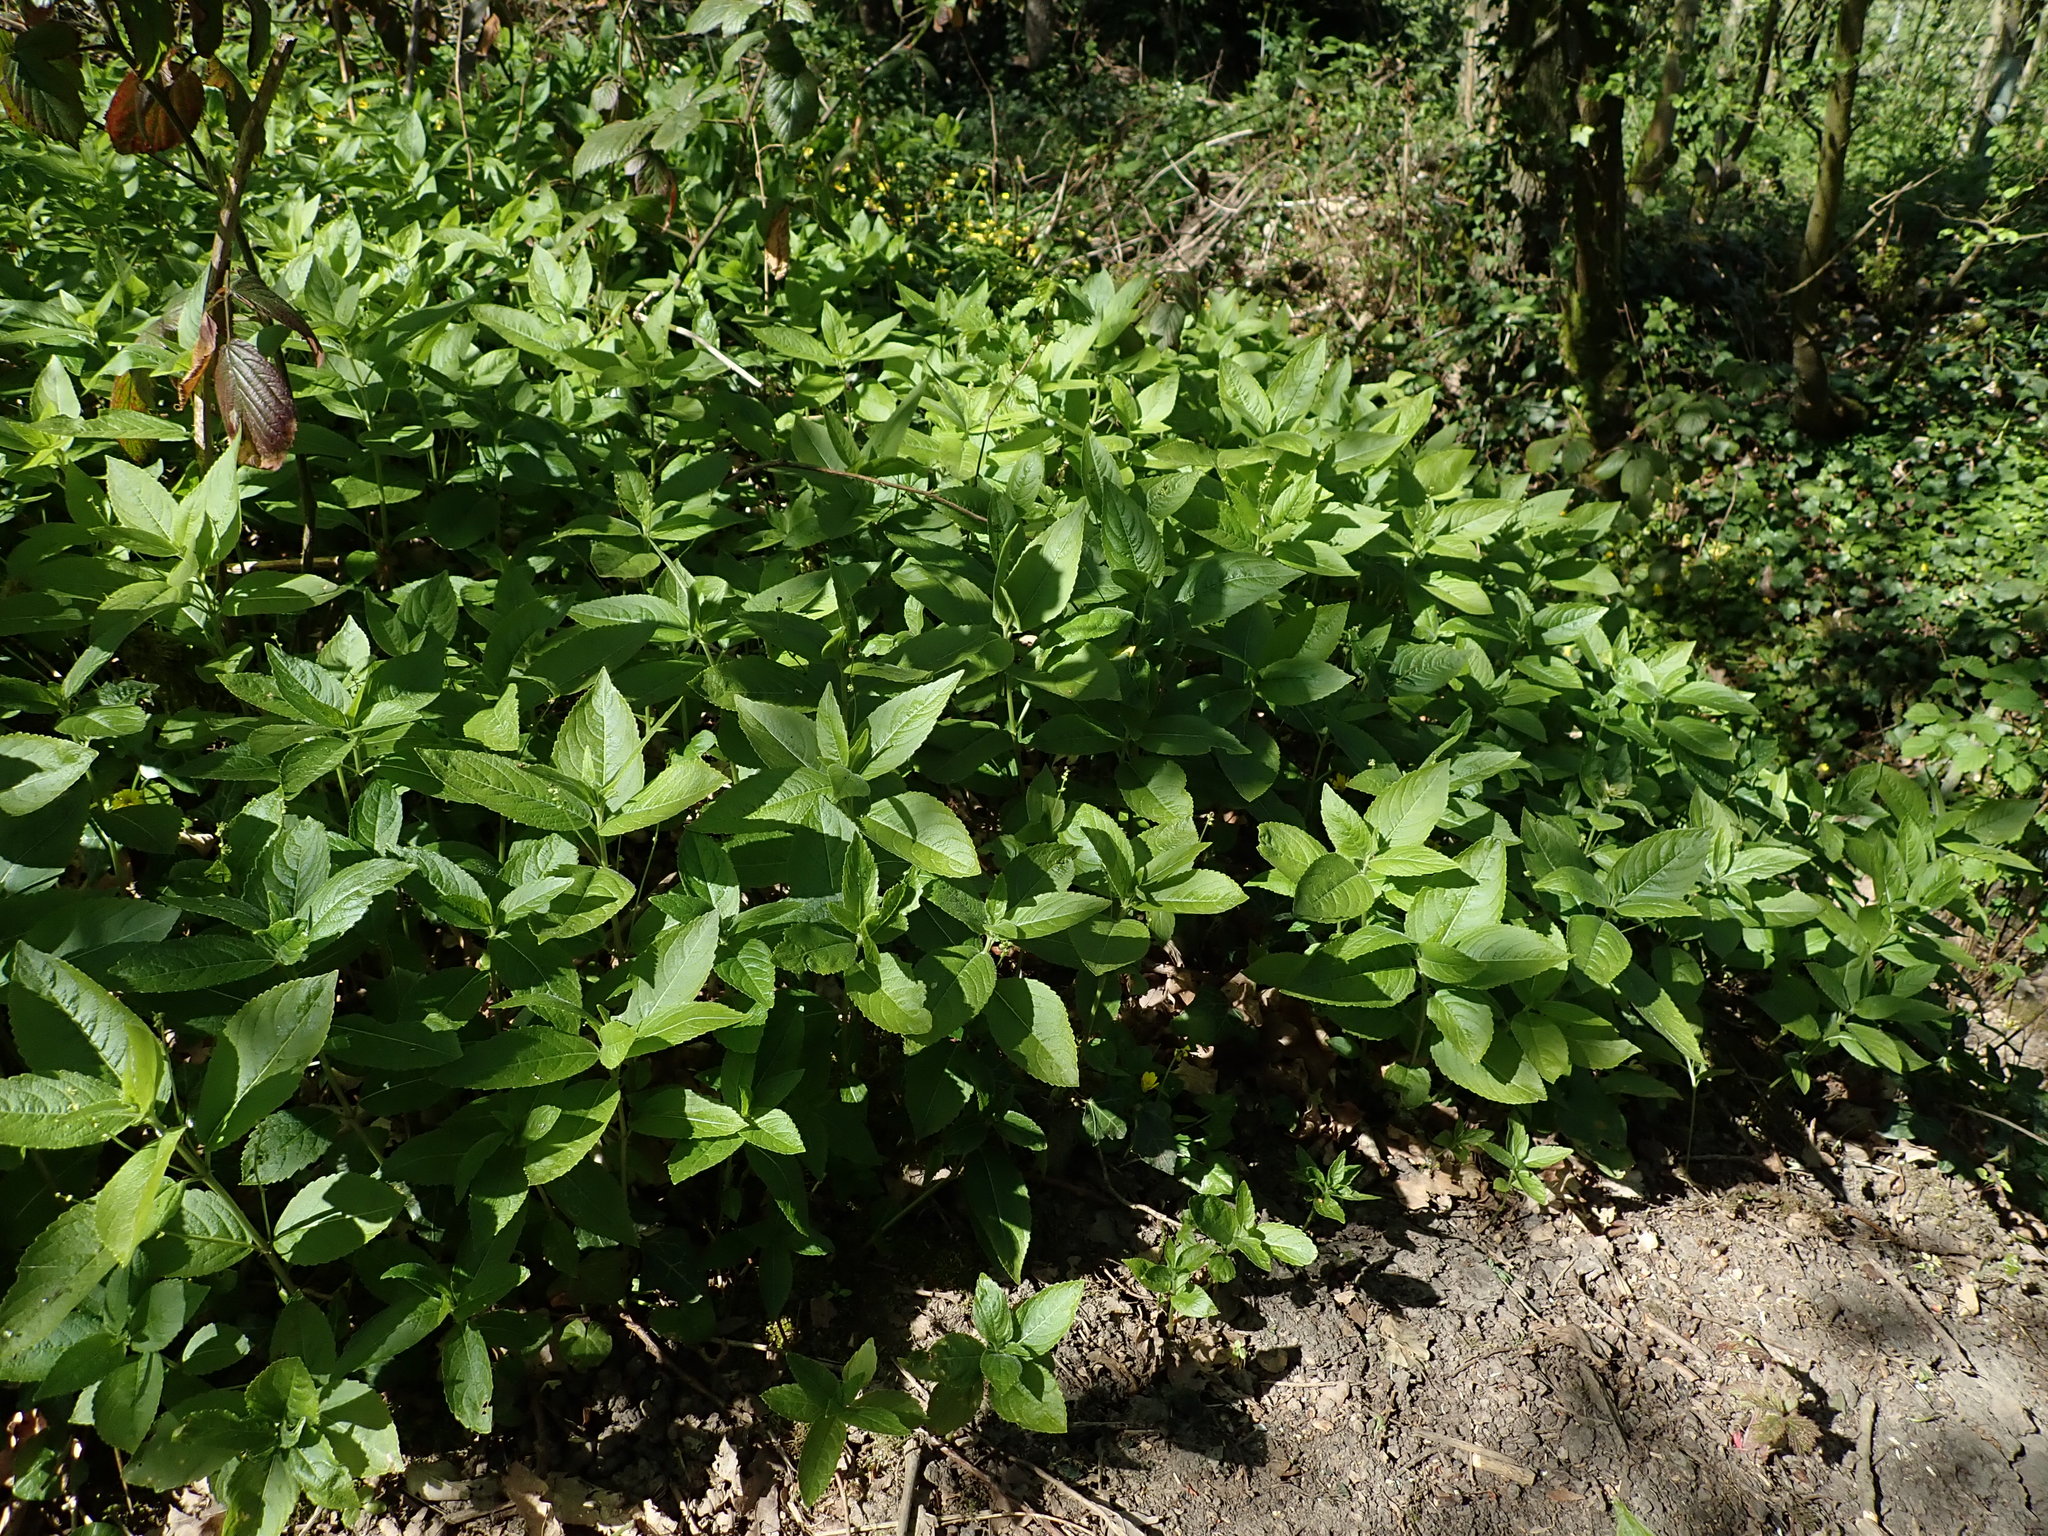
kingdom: Plantae
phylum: Tracheophyta
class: Magnoliopsida
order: Malpighiales
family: Euphorbiaceae
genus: Mercurialis
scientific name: Mercurialis perennis
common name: Dog mercury
